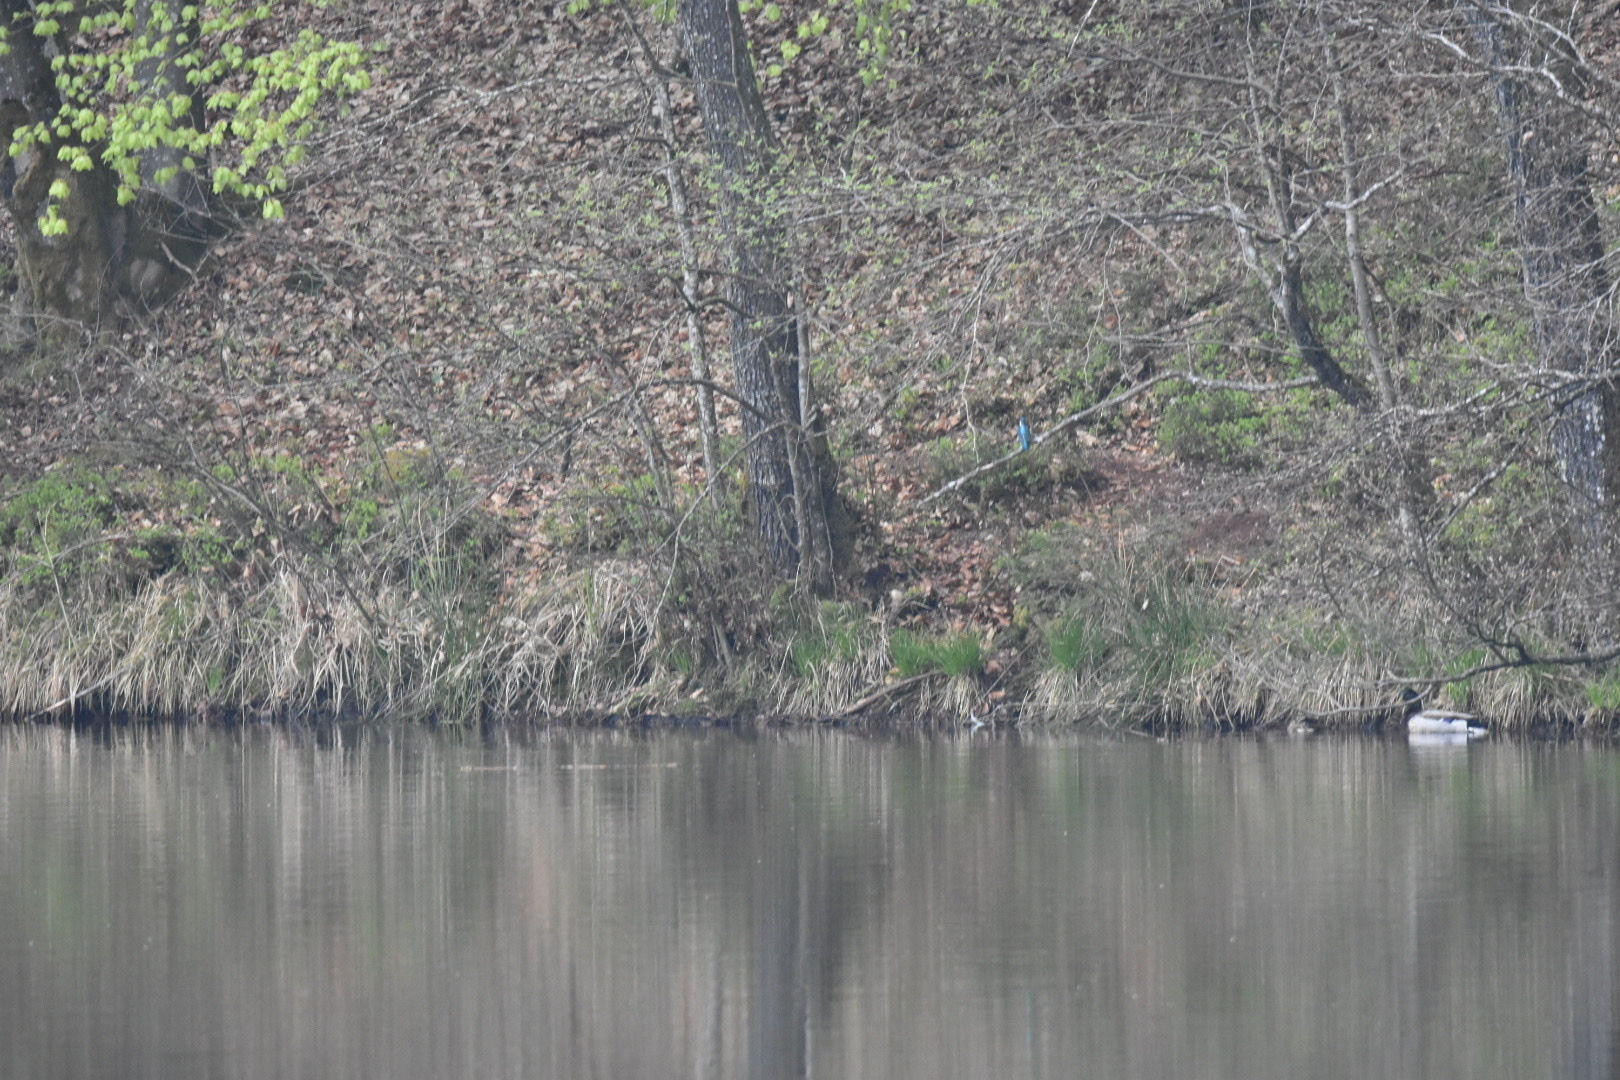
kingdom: Animalia
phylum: Chordata
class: Aves
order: Coraciiformes
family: Alcedinidae
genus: Alcedo
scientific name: Alcedo atthis
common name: Common kingfisher
